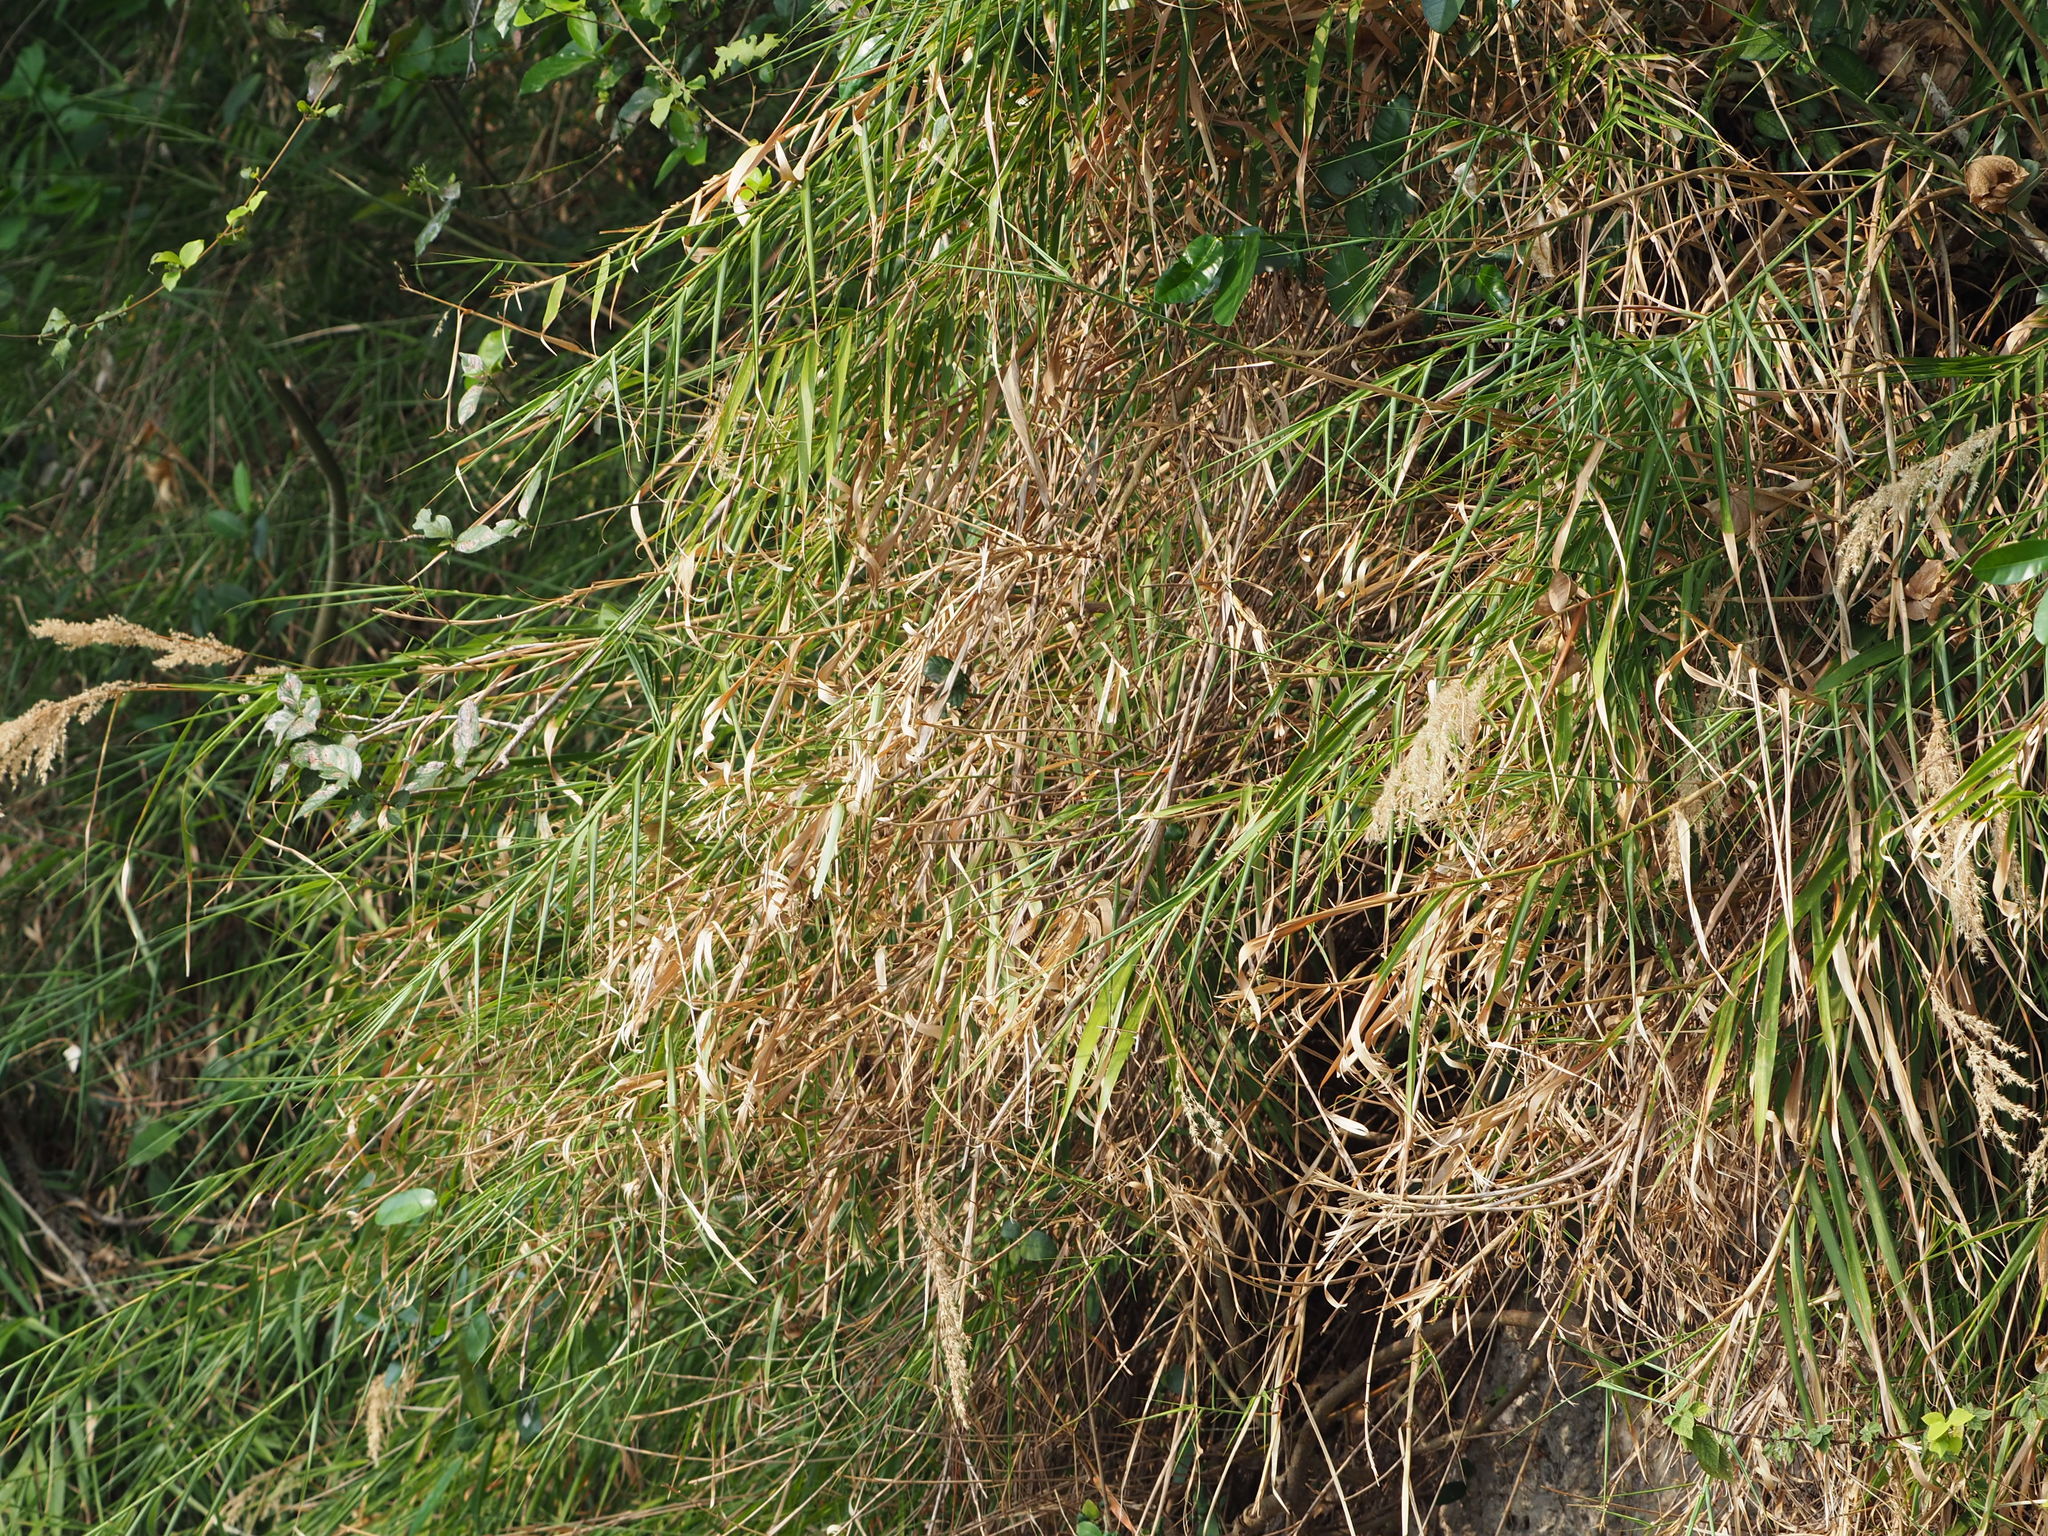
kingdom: Plantae
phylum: Tracheophyta
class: Liliopsida
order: Poales
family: Poaceae
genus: Arundo
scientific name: Arundo formosana
